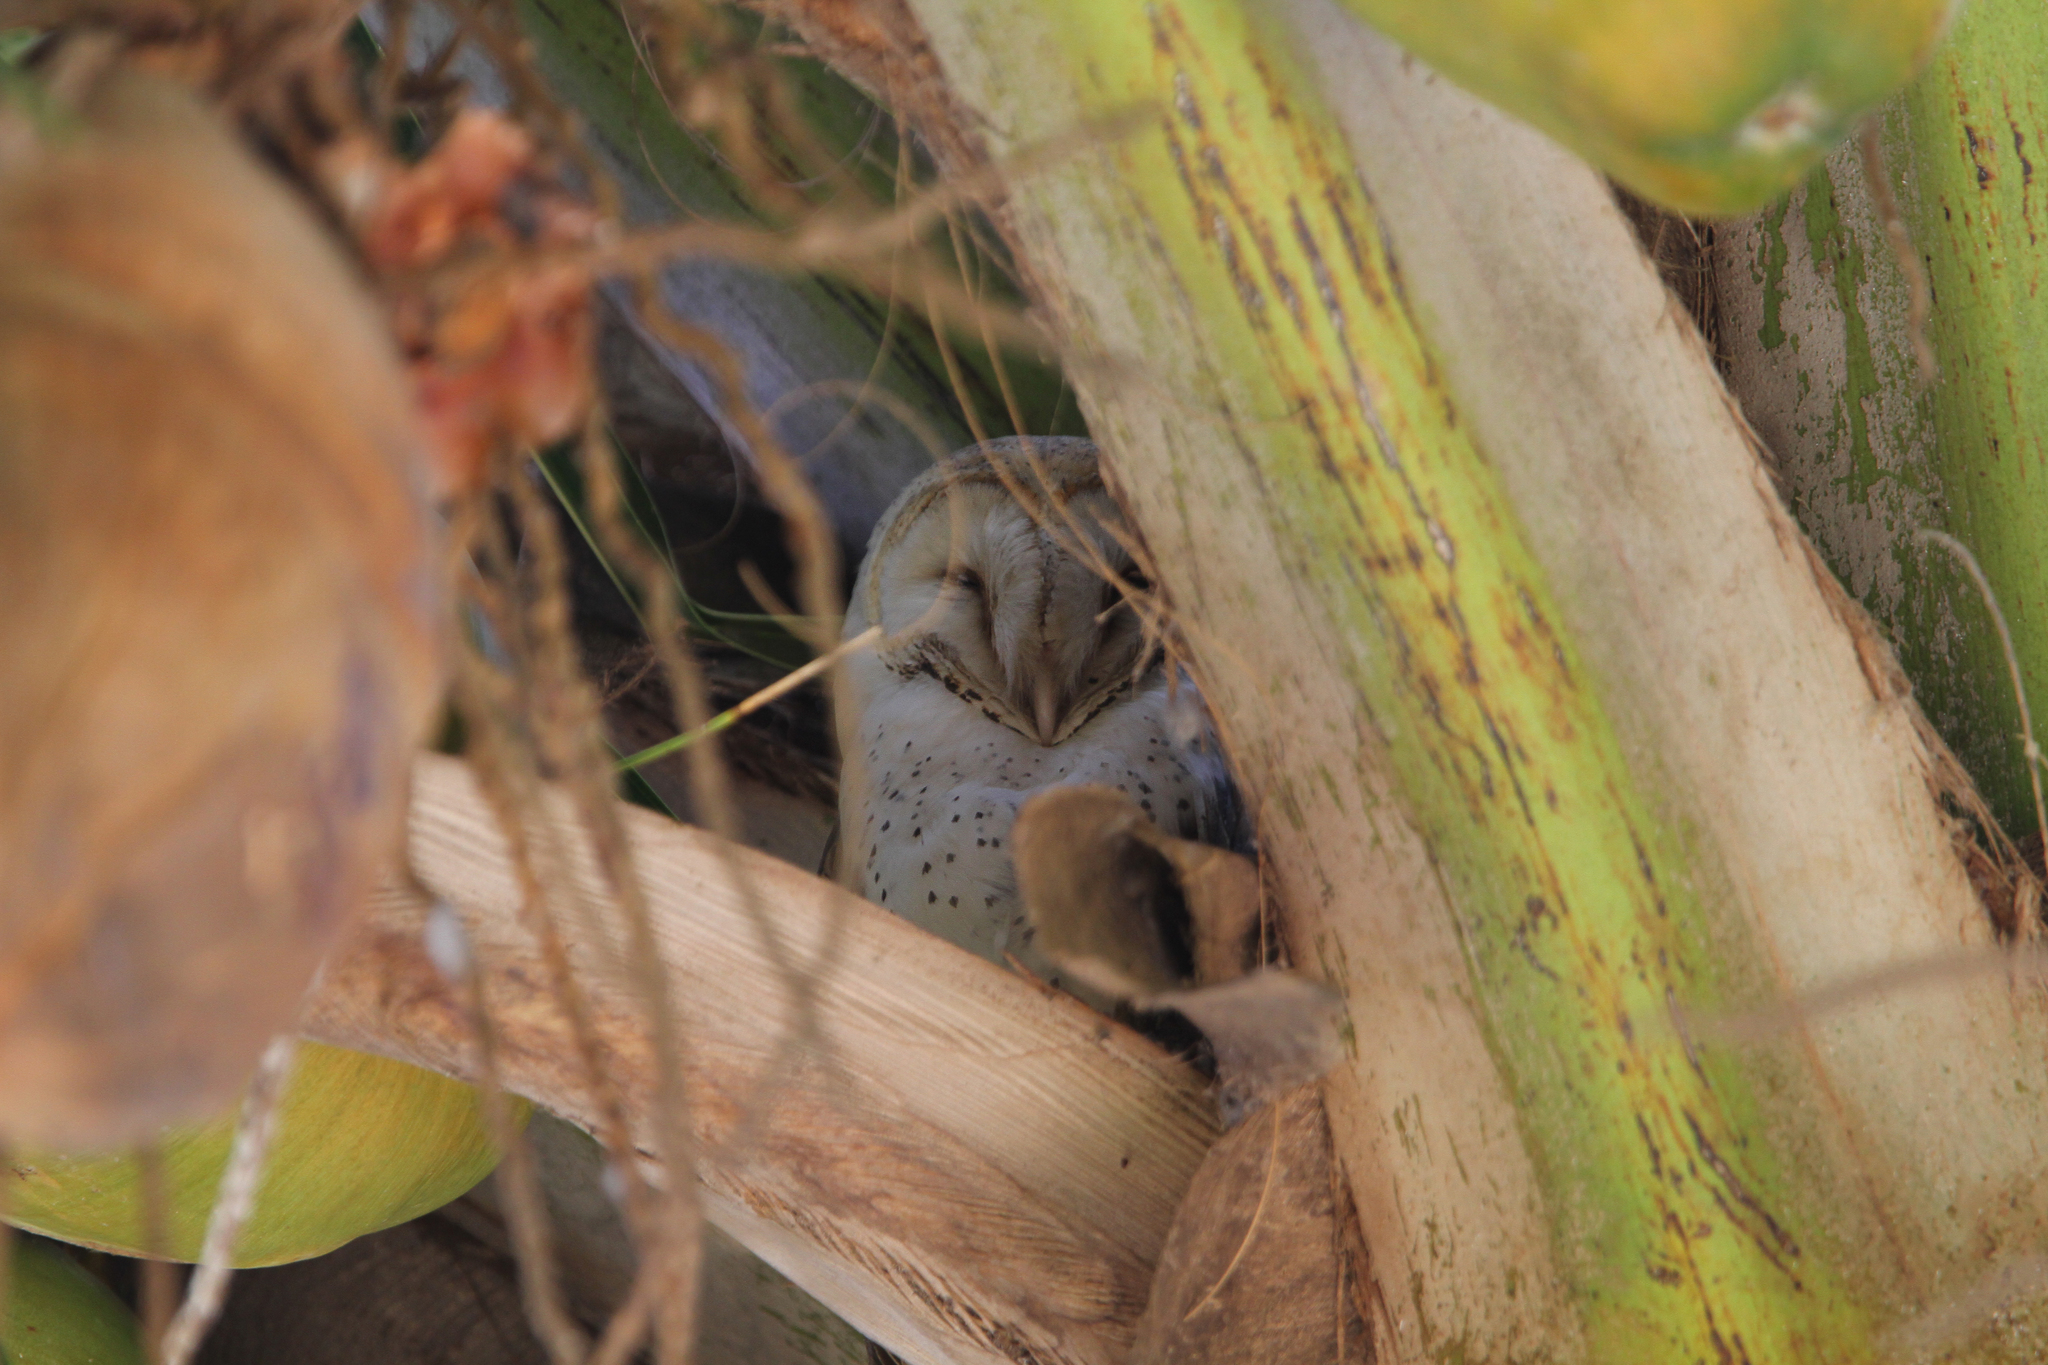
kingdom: Animalia
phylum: Chordata
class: Aves
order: Strigiformes
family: Tytonidae
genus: Tyto
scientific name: Tyto alba
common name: Barn owl
